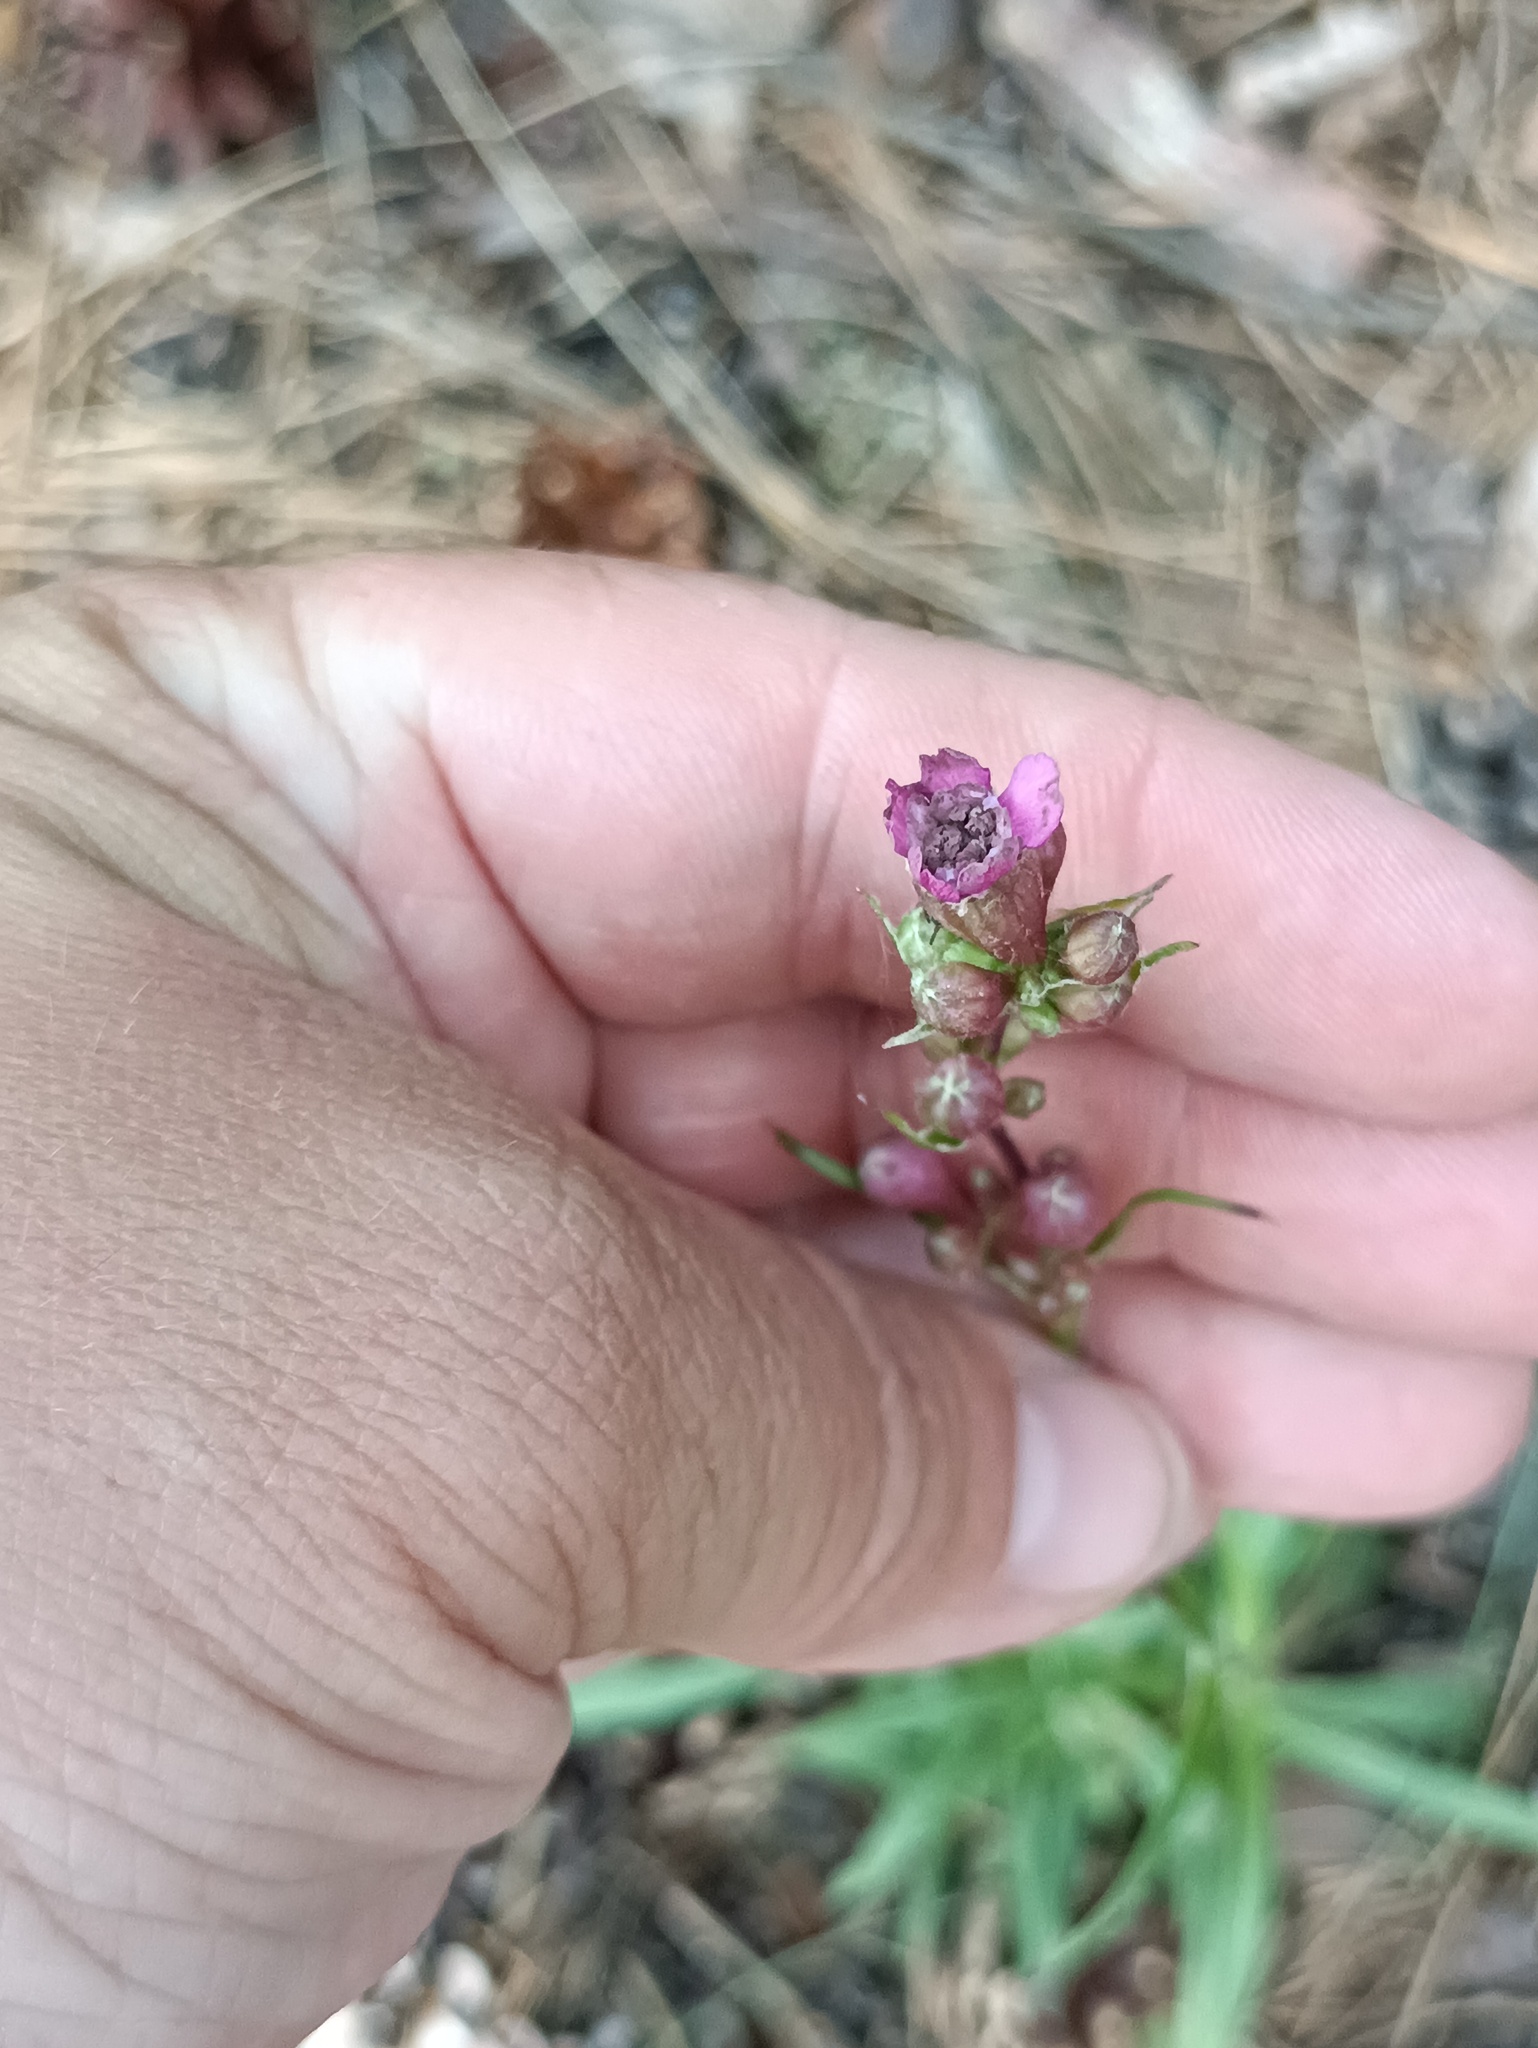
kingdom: Plantae
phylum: Tracheophyta
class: Magnoliopsida
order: Caryophyllales
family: Caryophyllaceae
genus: Viscaria
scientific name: Viscaria vulgaris
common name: Clammy campion
